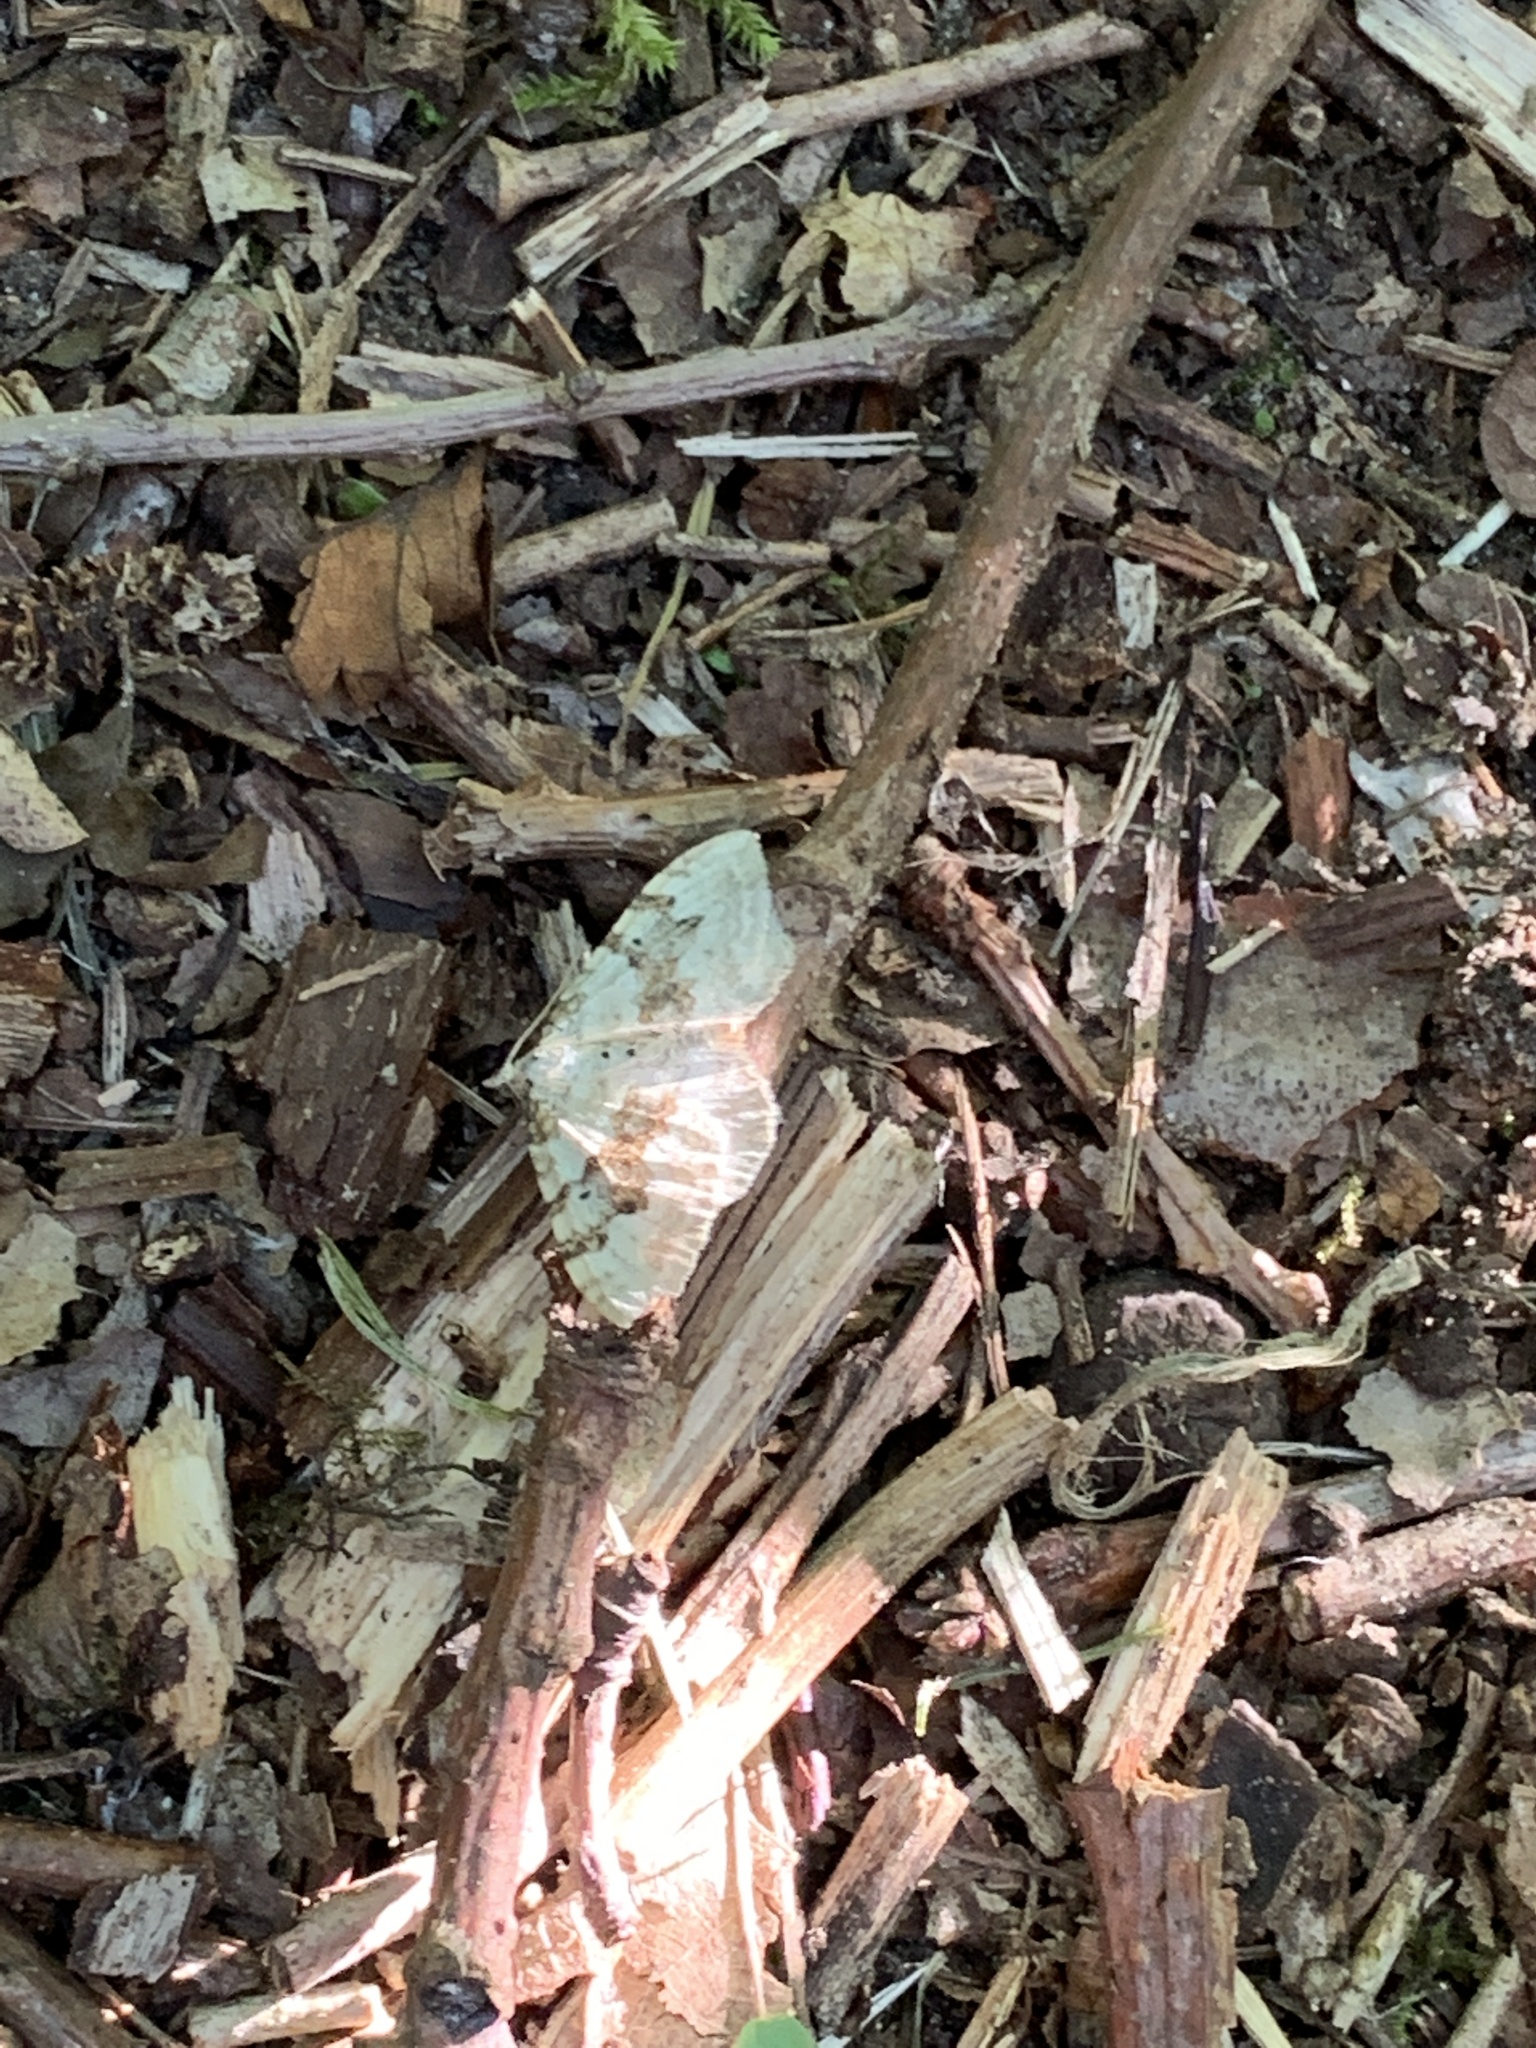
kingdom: Animalia
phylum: Arthropoda
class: Insecta
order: Lepidoptera
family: Geometridae
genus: Xanthorhoe
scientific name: Xanthorhoe montanata
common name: Silver-ground carpet
